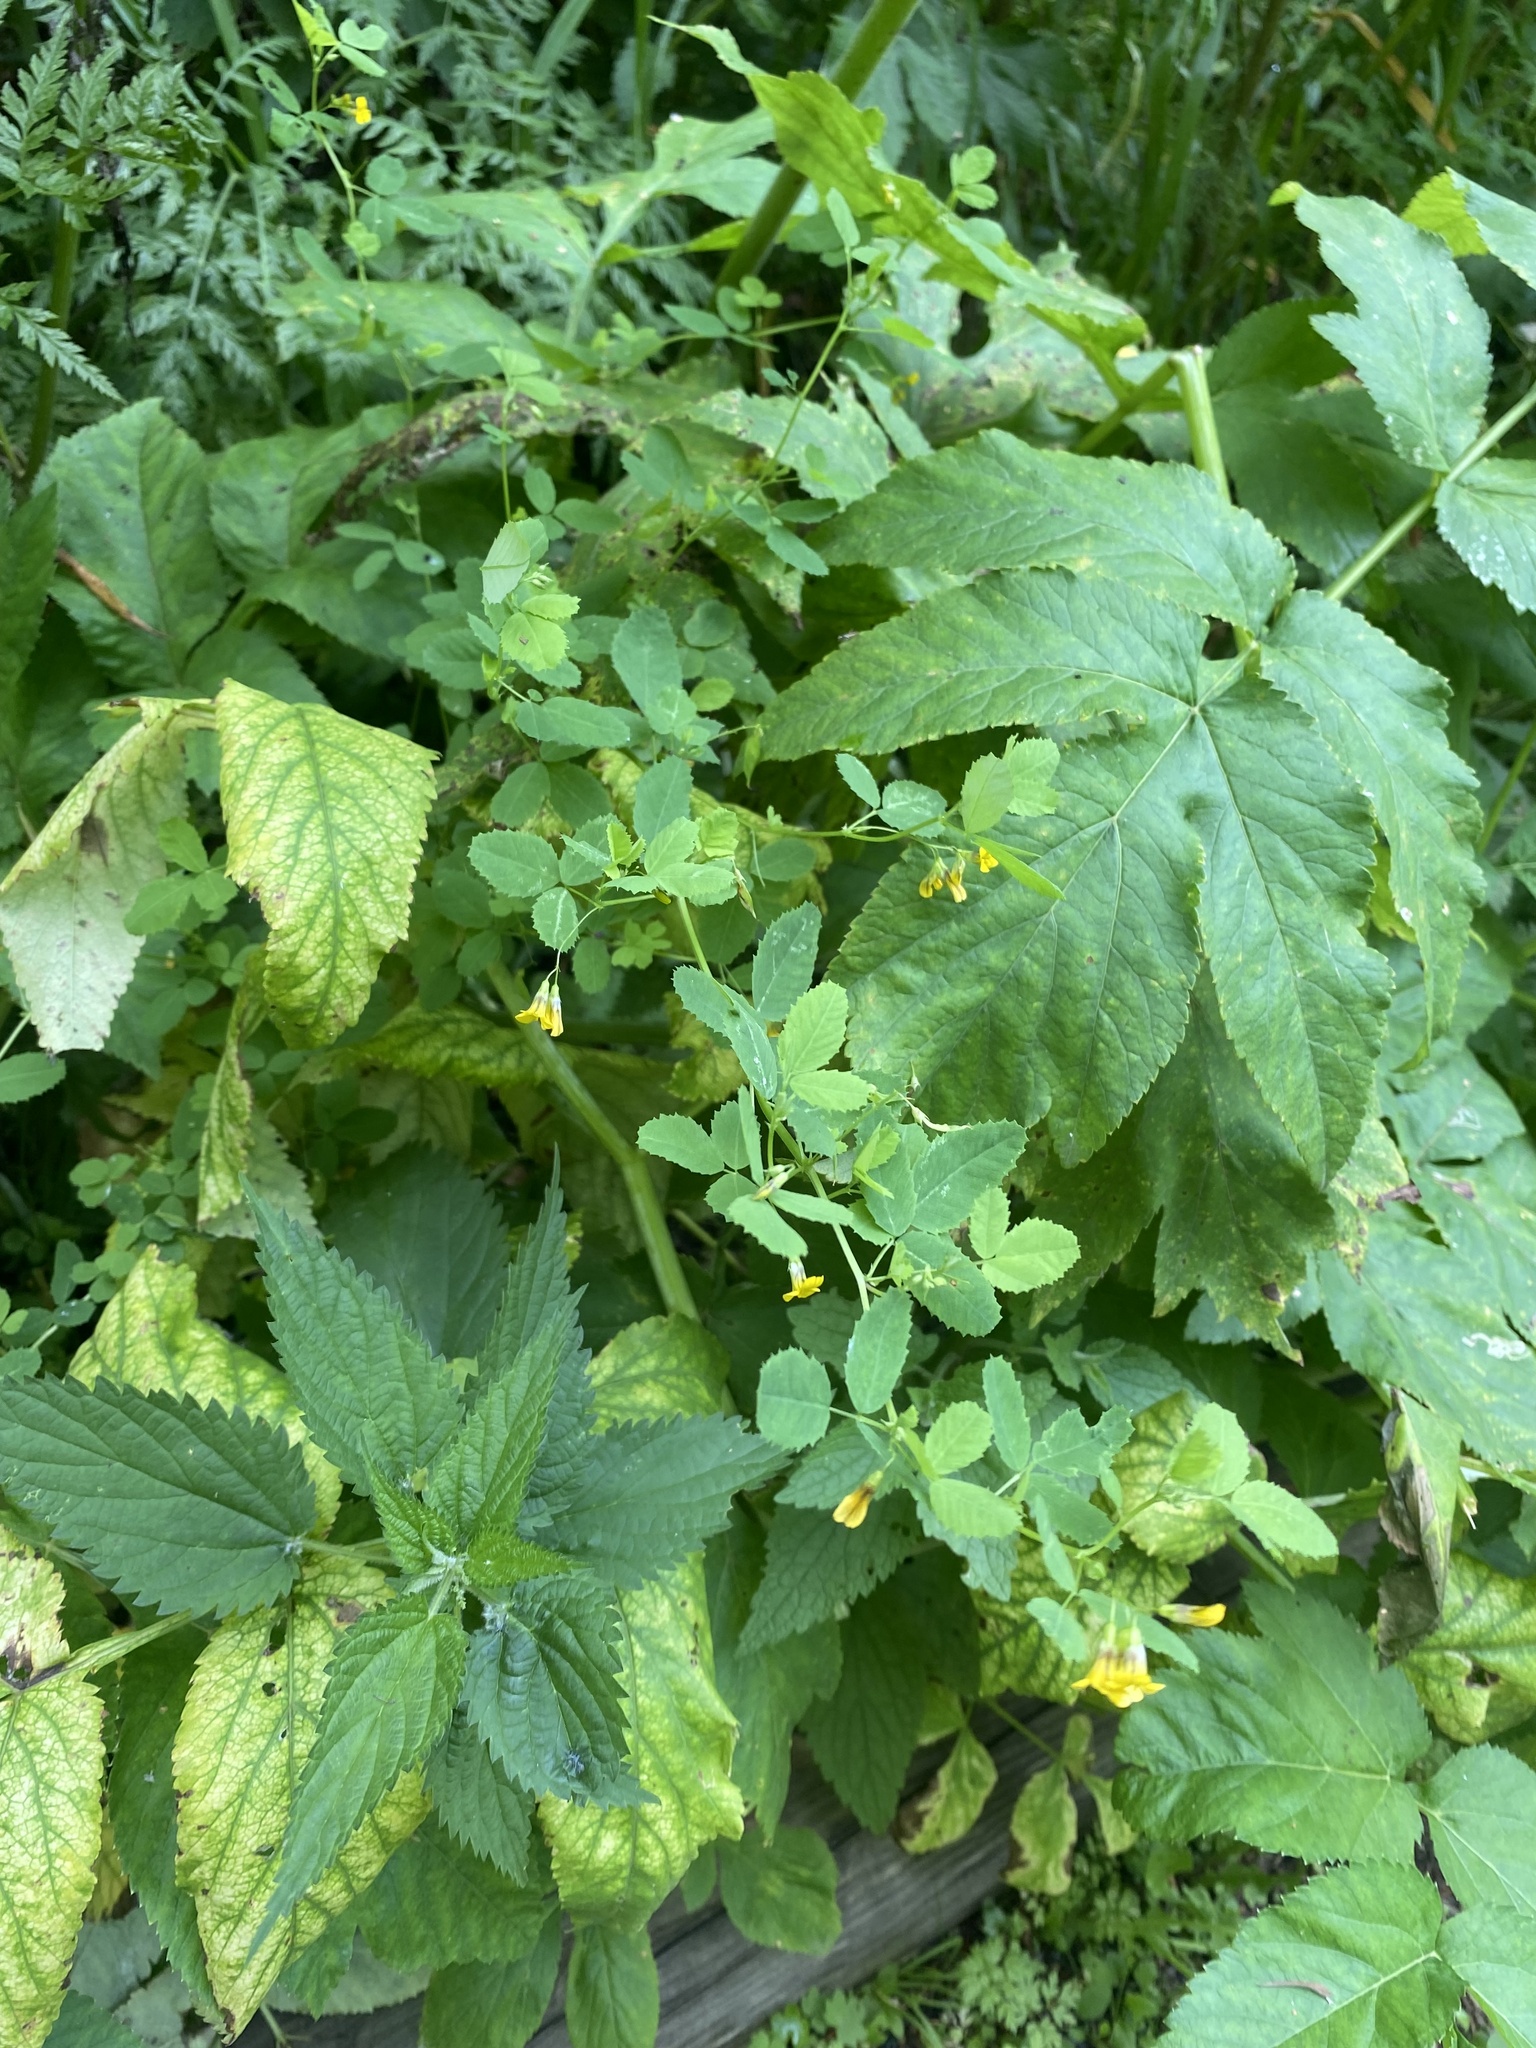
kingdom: Plantae
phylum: Tracheophyta
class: Magnoliopsida
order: Fabales
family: Fabaceae
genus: Medicago
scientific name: Medicago platycarpos
